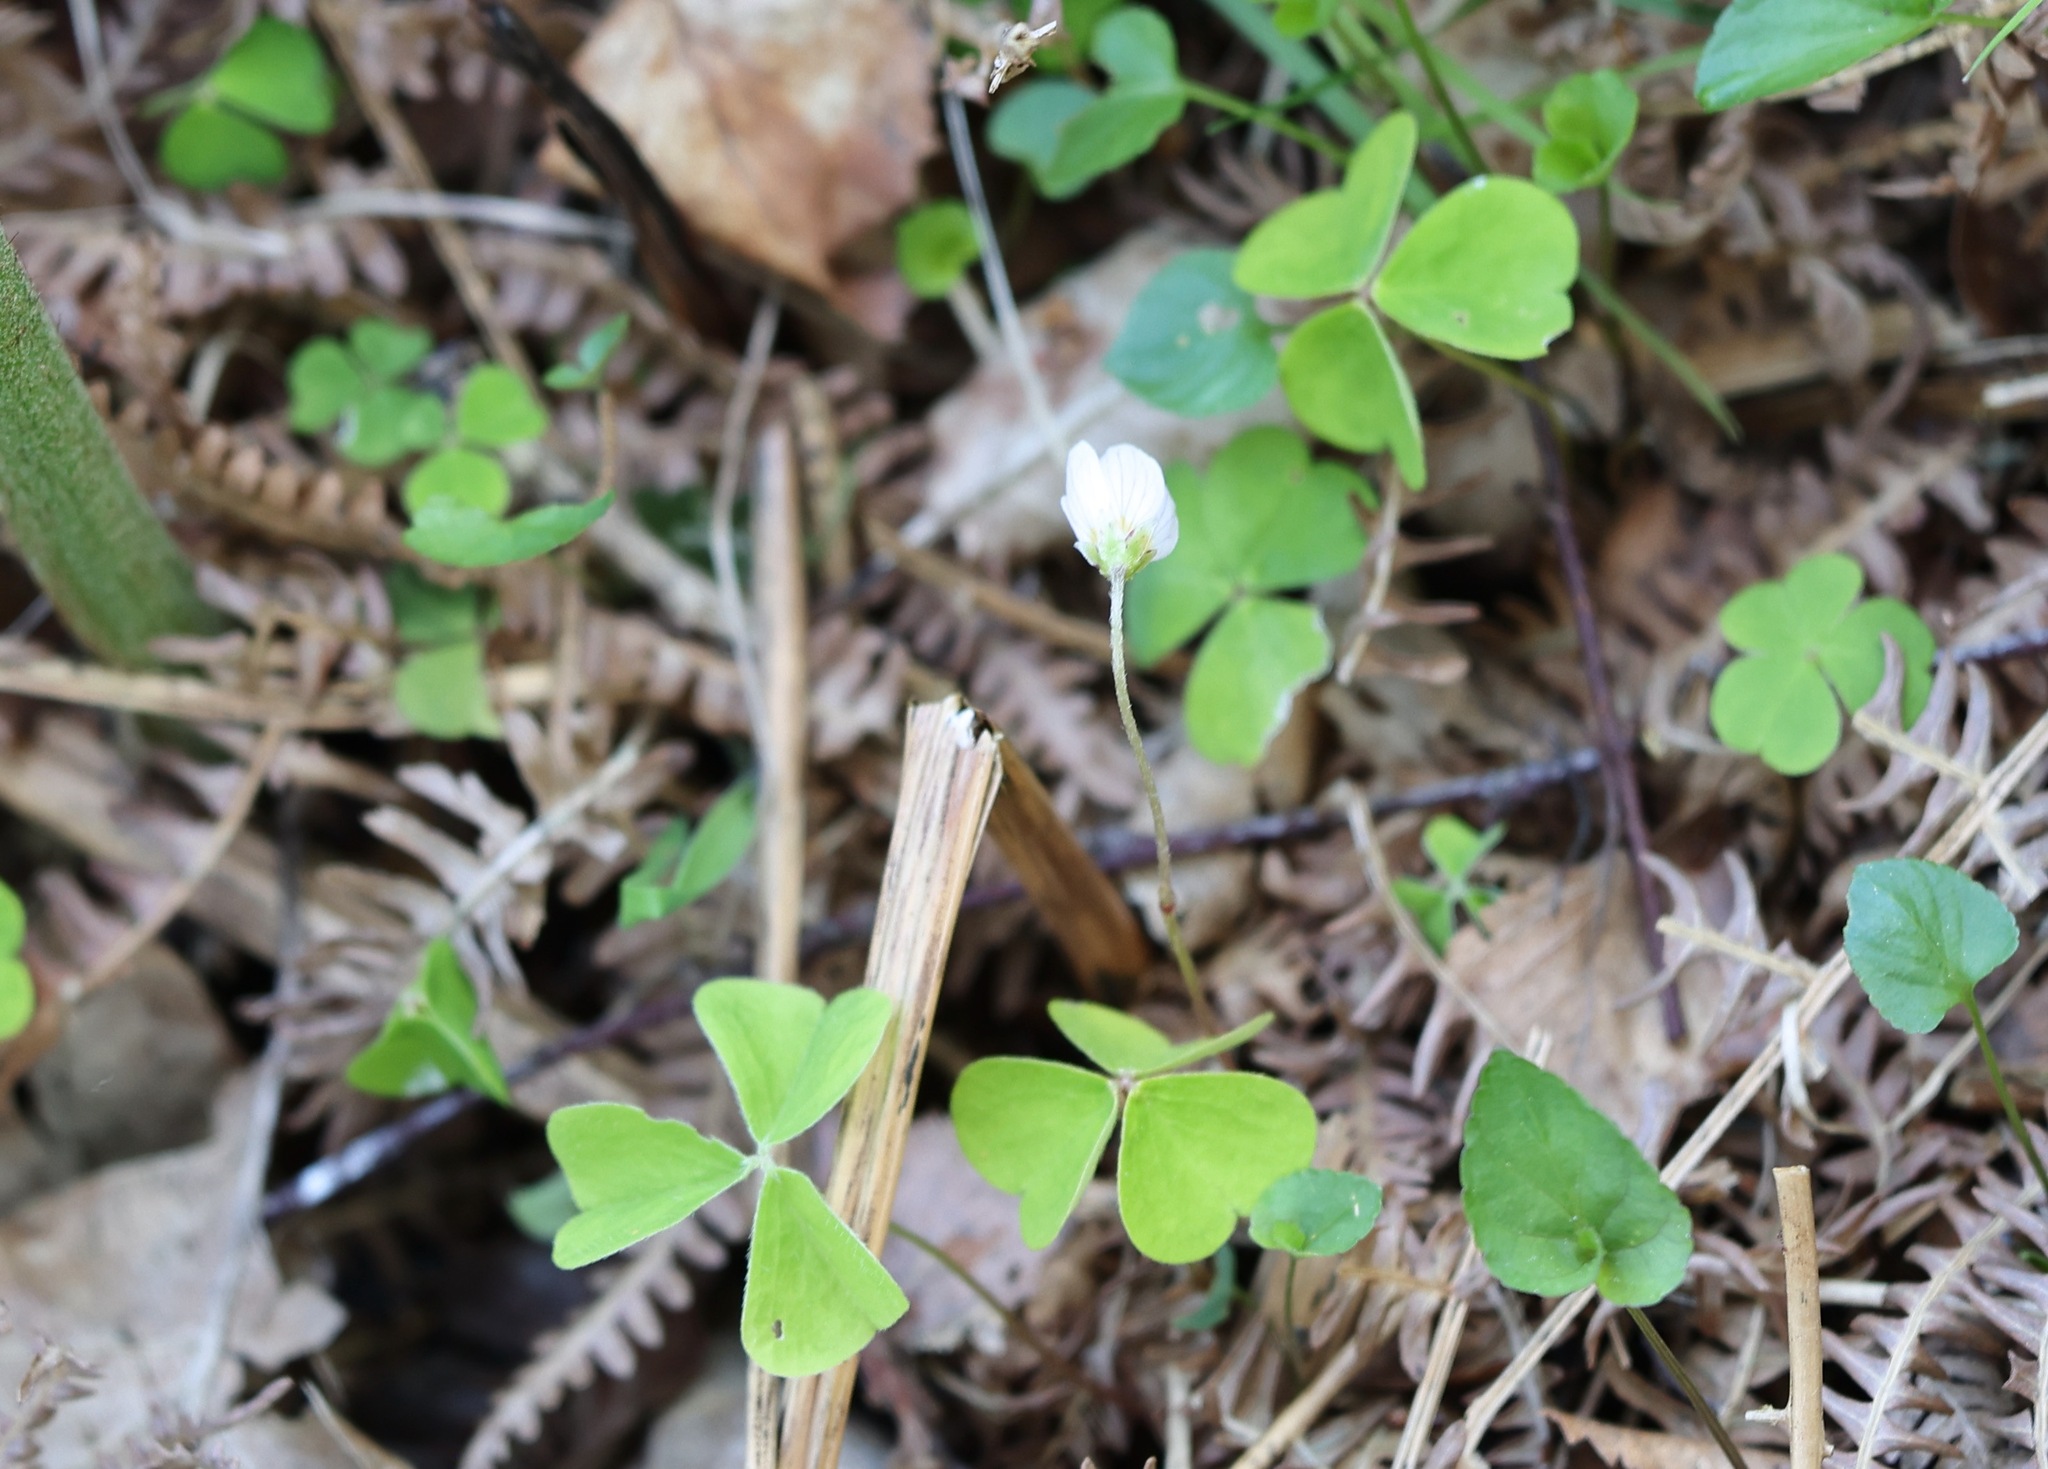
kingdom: Plantae
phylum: Tracheophyta
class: Magnoliopsida
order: Oxalidales
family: Oxalidaceae
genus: Oxalis
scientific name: Oxalis acetosella
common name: Wood-sorrel
